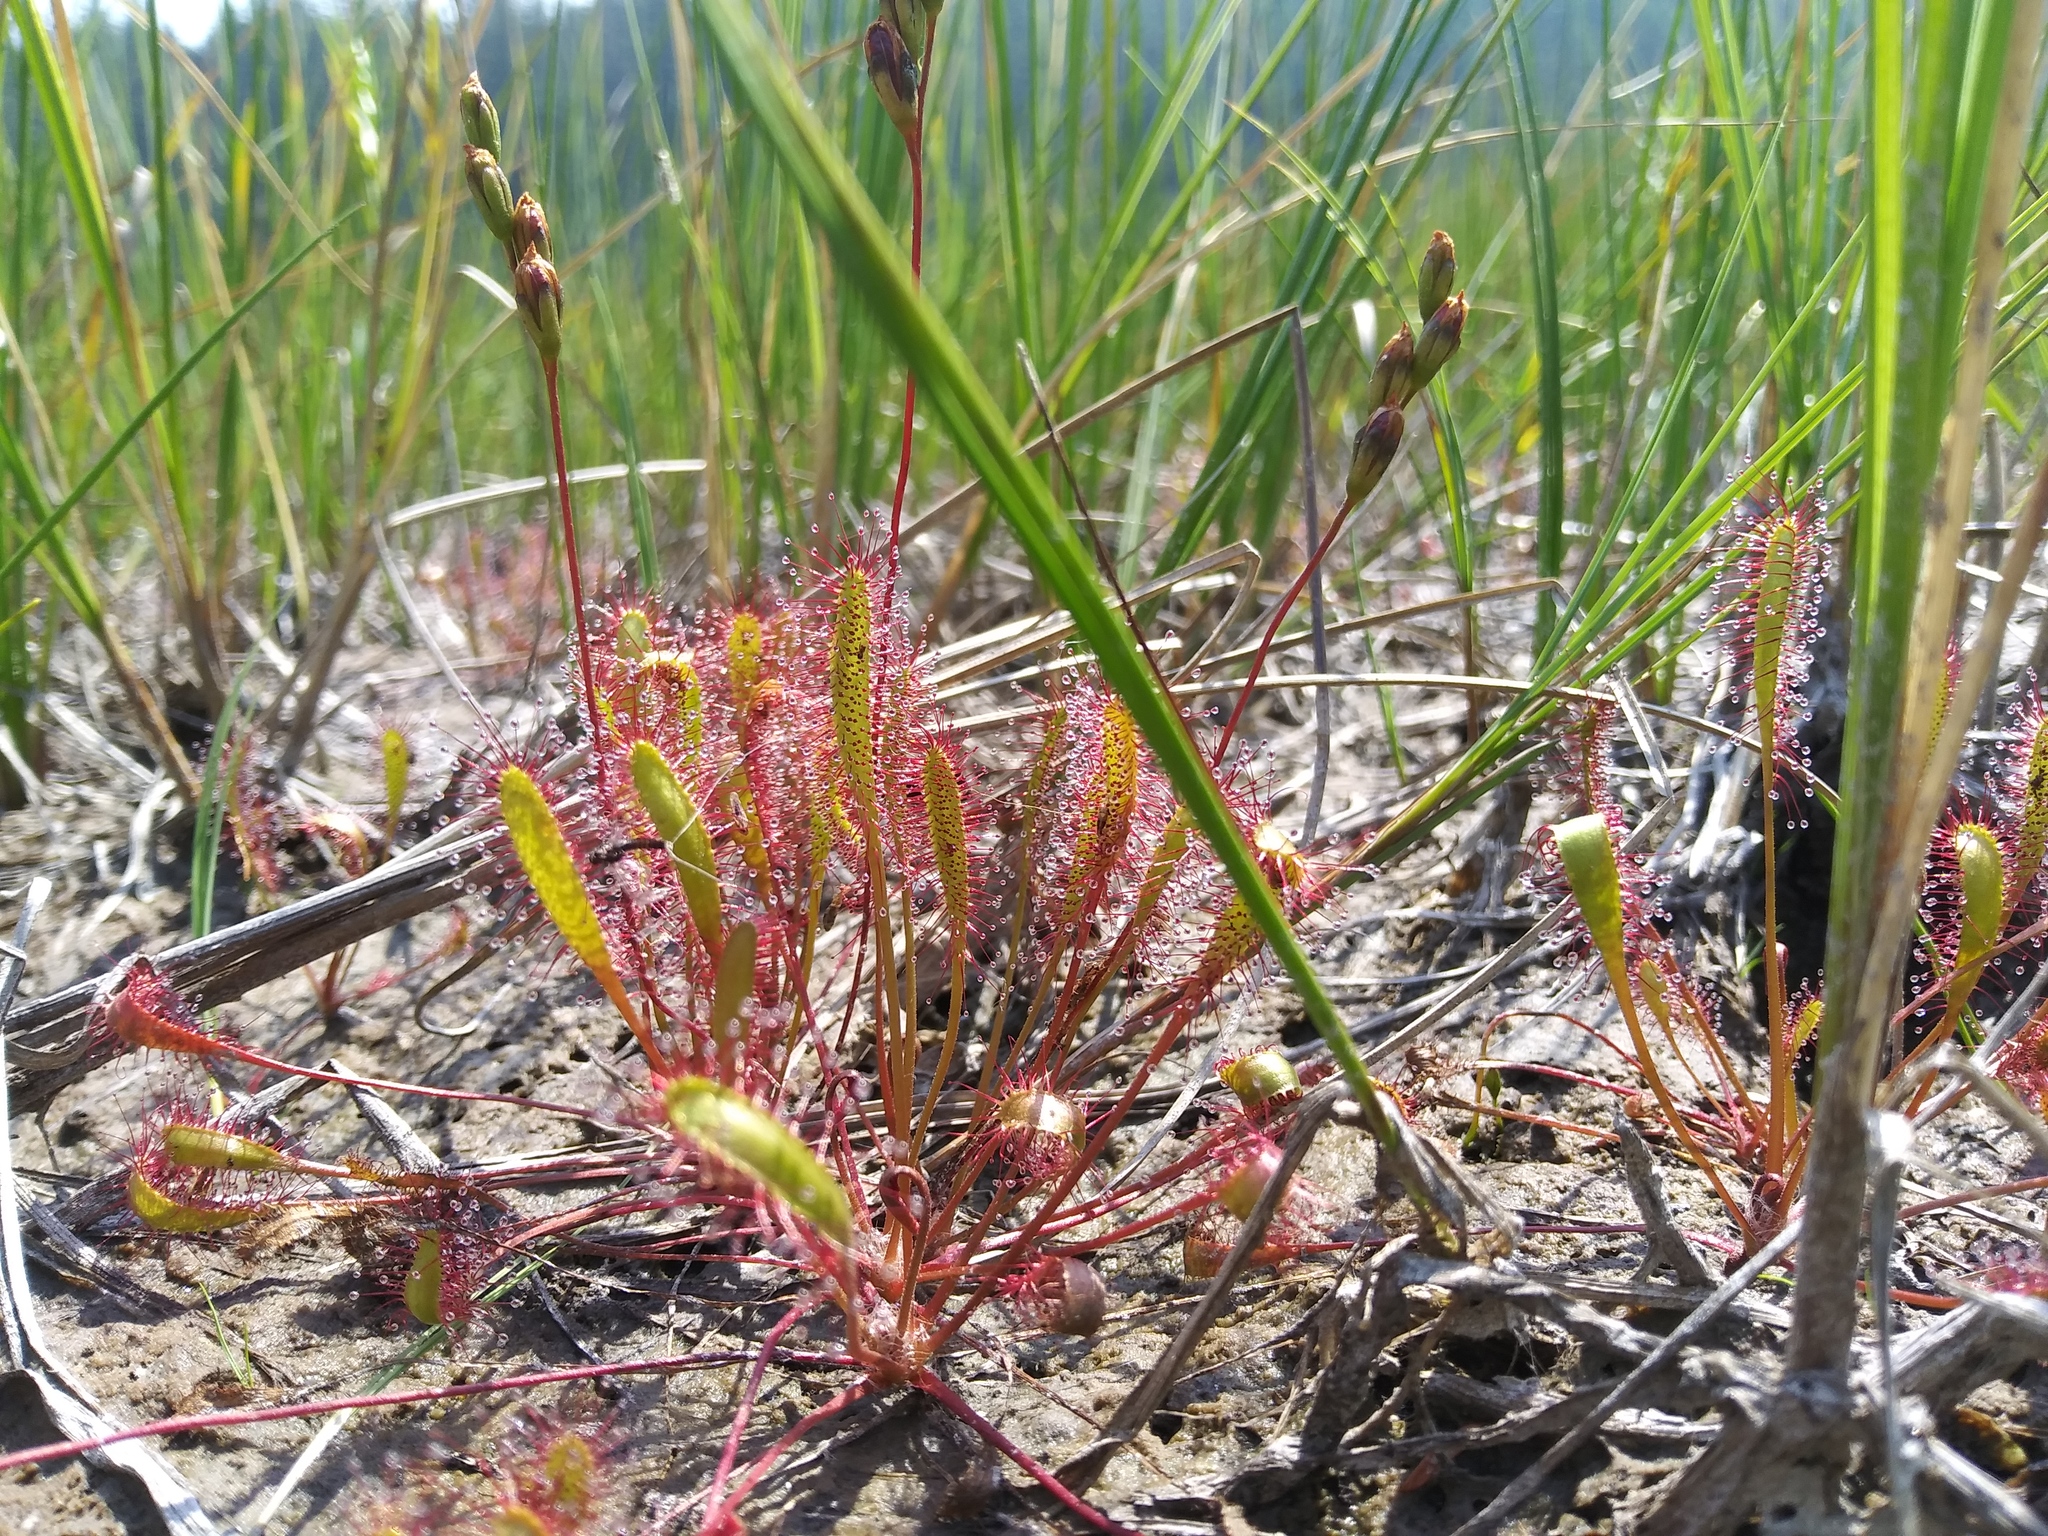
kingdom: Plantae
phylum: Tracheophyta
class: Magnoliopsida
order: Caryophyllales
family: Droseraceae
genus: Drosera
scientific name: Drosera anglica
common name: Great sundew
